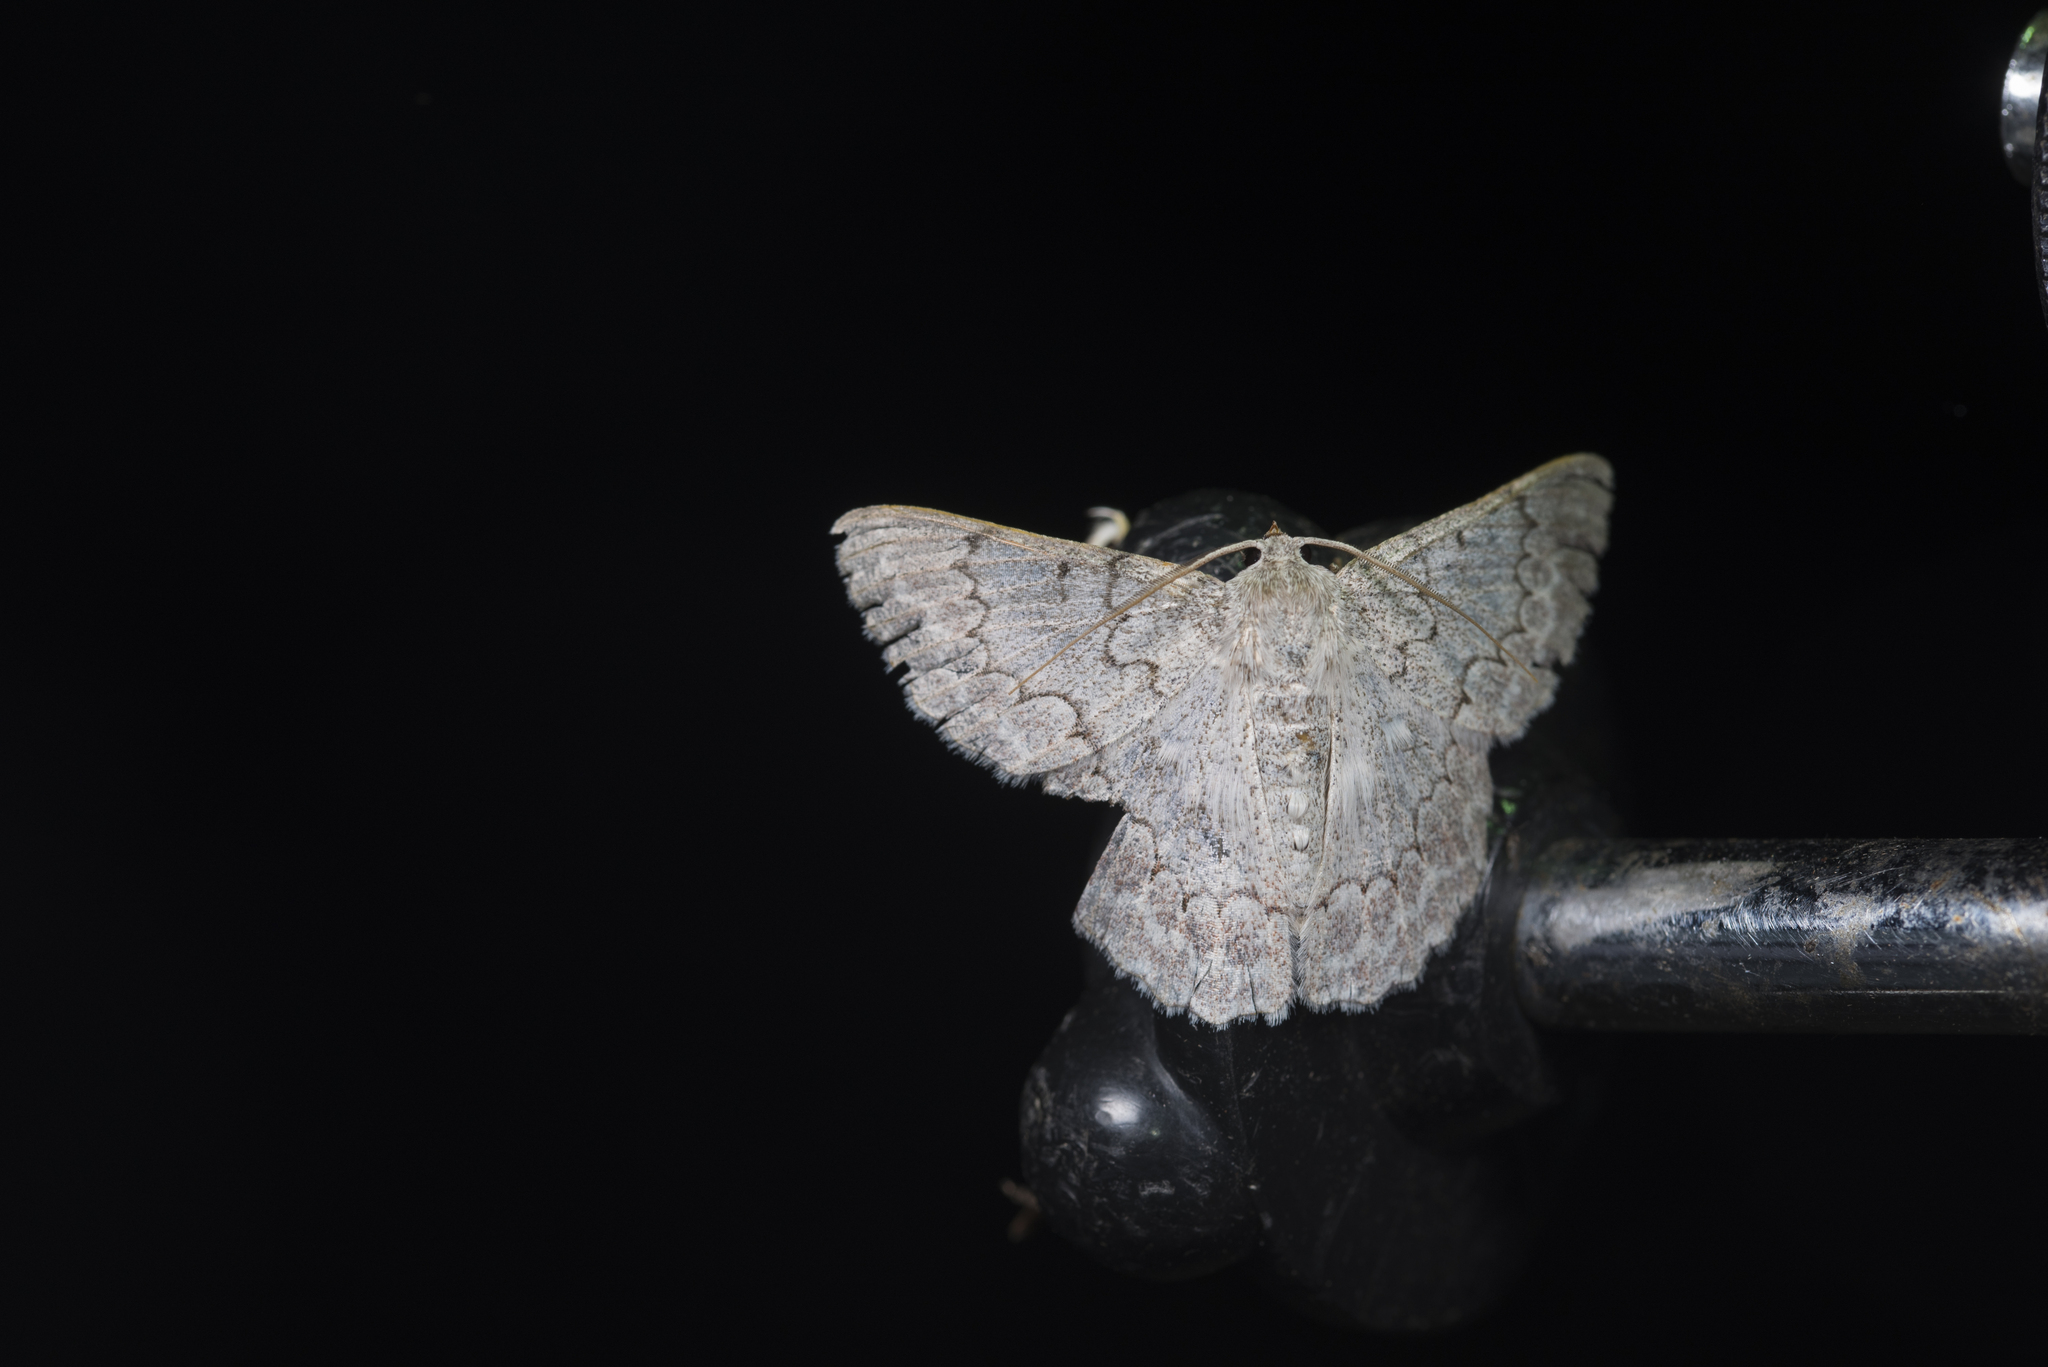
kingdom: Animalia
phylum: Arthropoda
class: Insecta
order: Lepidoptera
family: Geometridae
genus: Pingasa
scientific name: Pingasa secreta
